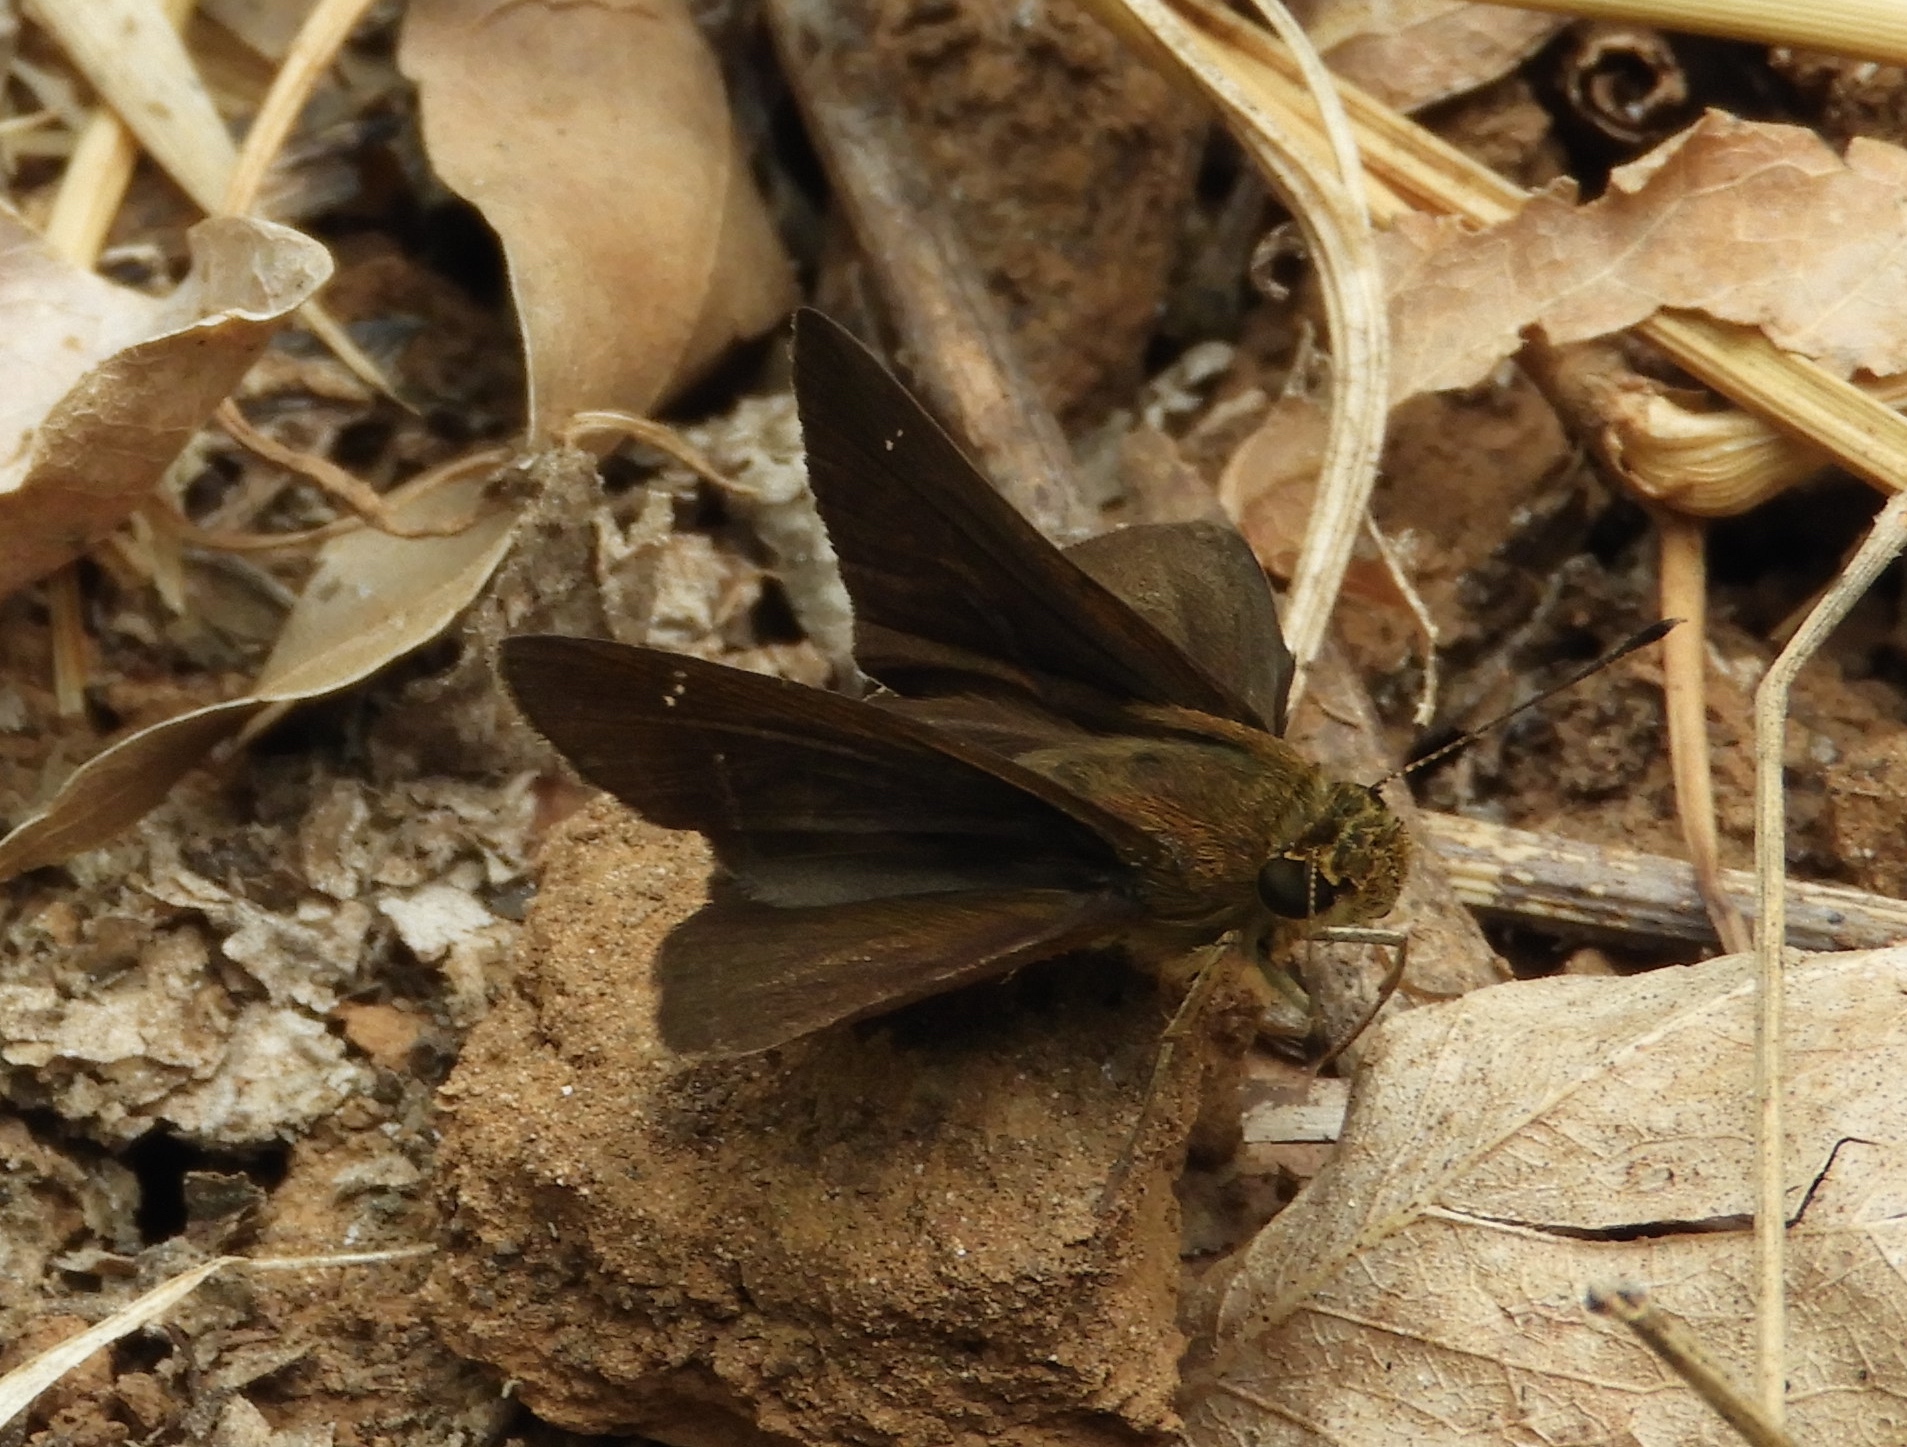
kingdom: Animalia
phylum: Arthropoda
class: Insecta
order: Lepidoptera
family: Hesperiidae
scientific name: Hesperiidae
